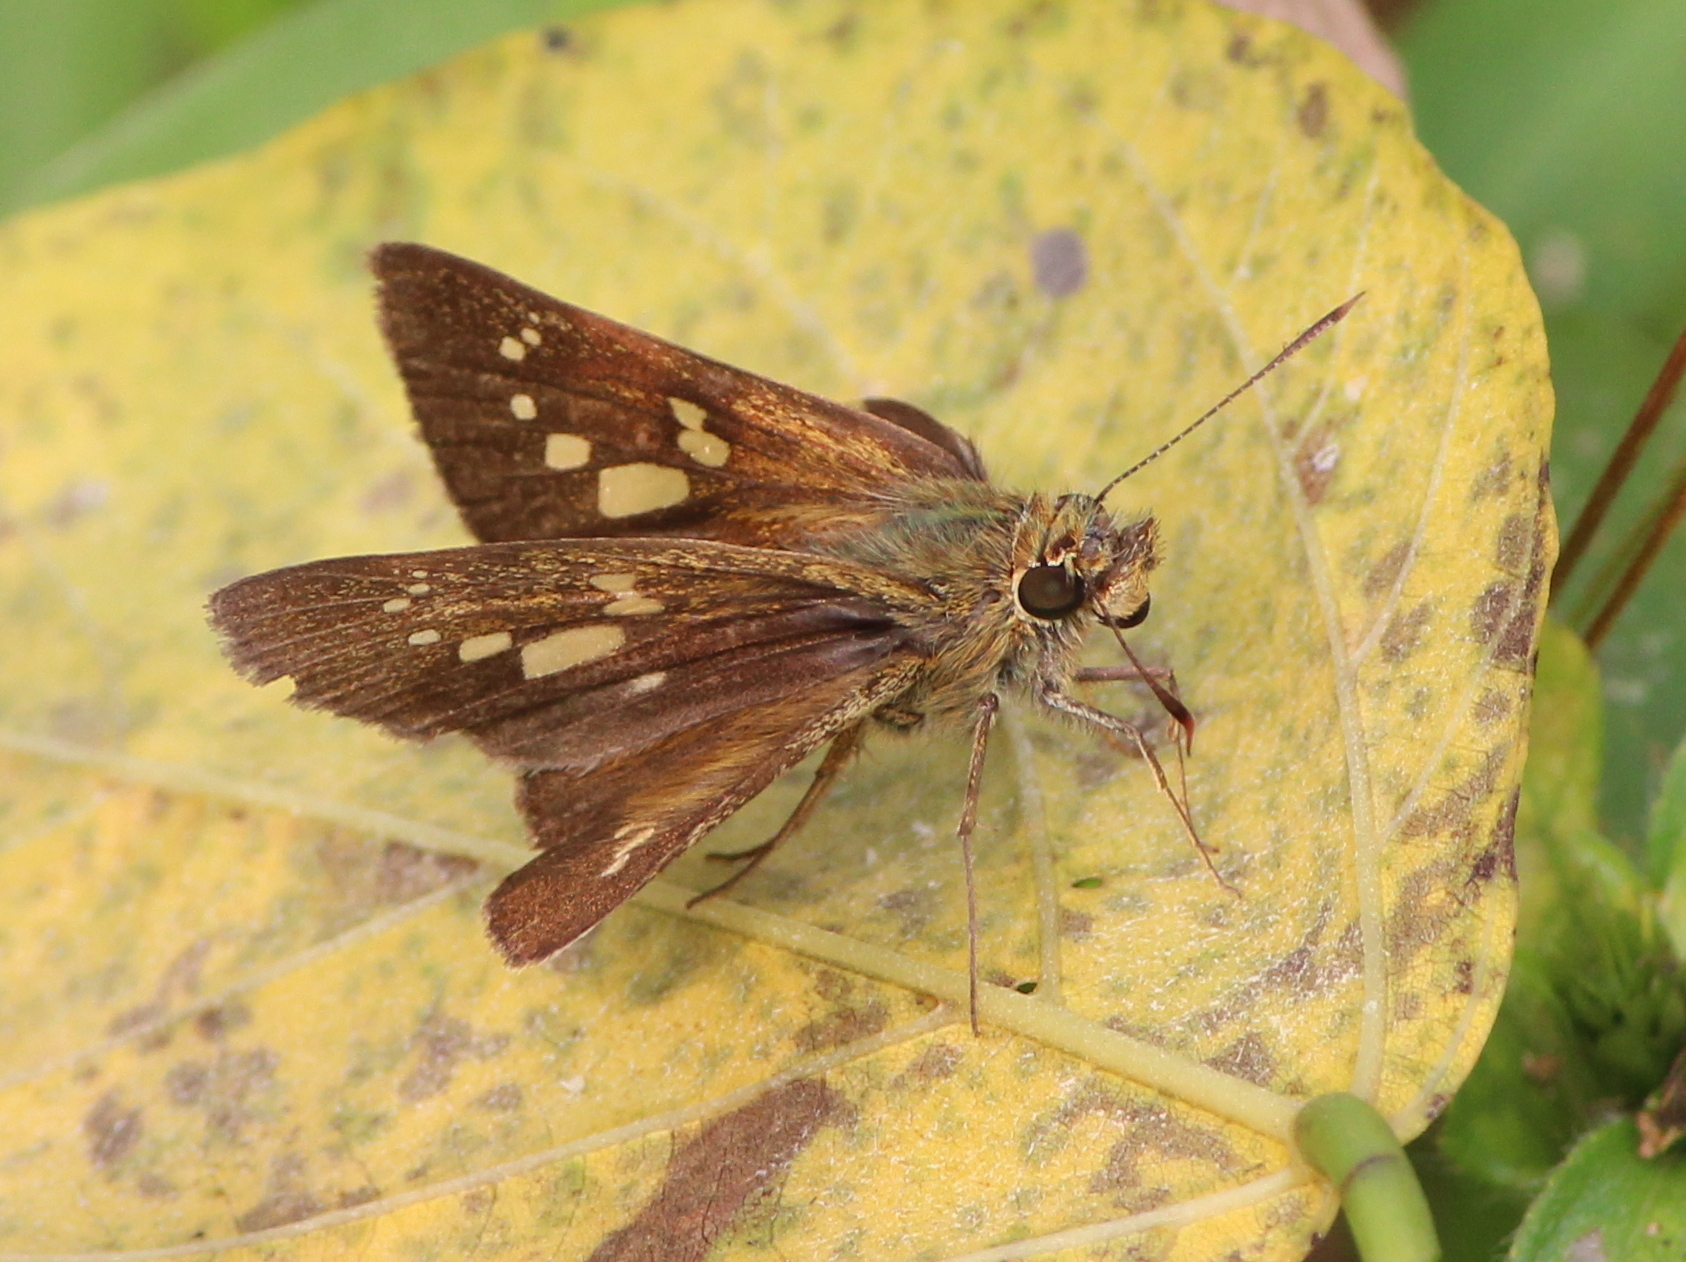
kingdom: Animalia
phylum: Arthropoda
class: Insecta
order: Lepidoptera
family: Hesperiidae
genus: Polytremis
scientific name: Polytremis lubricans
